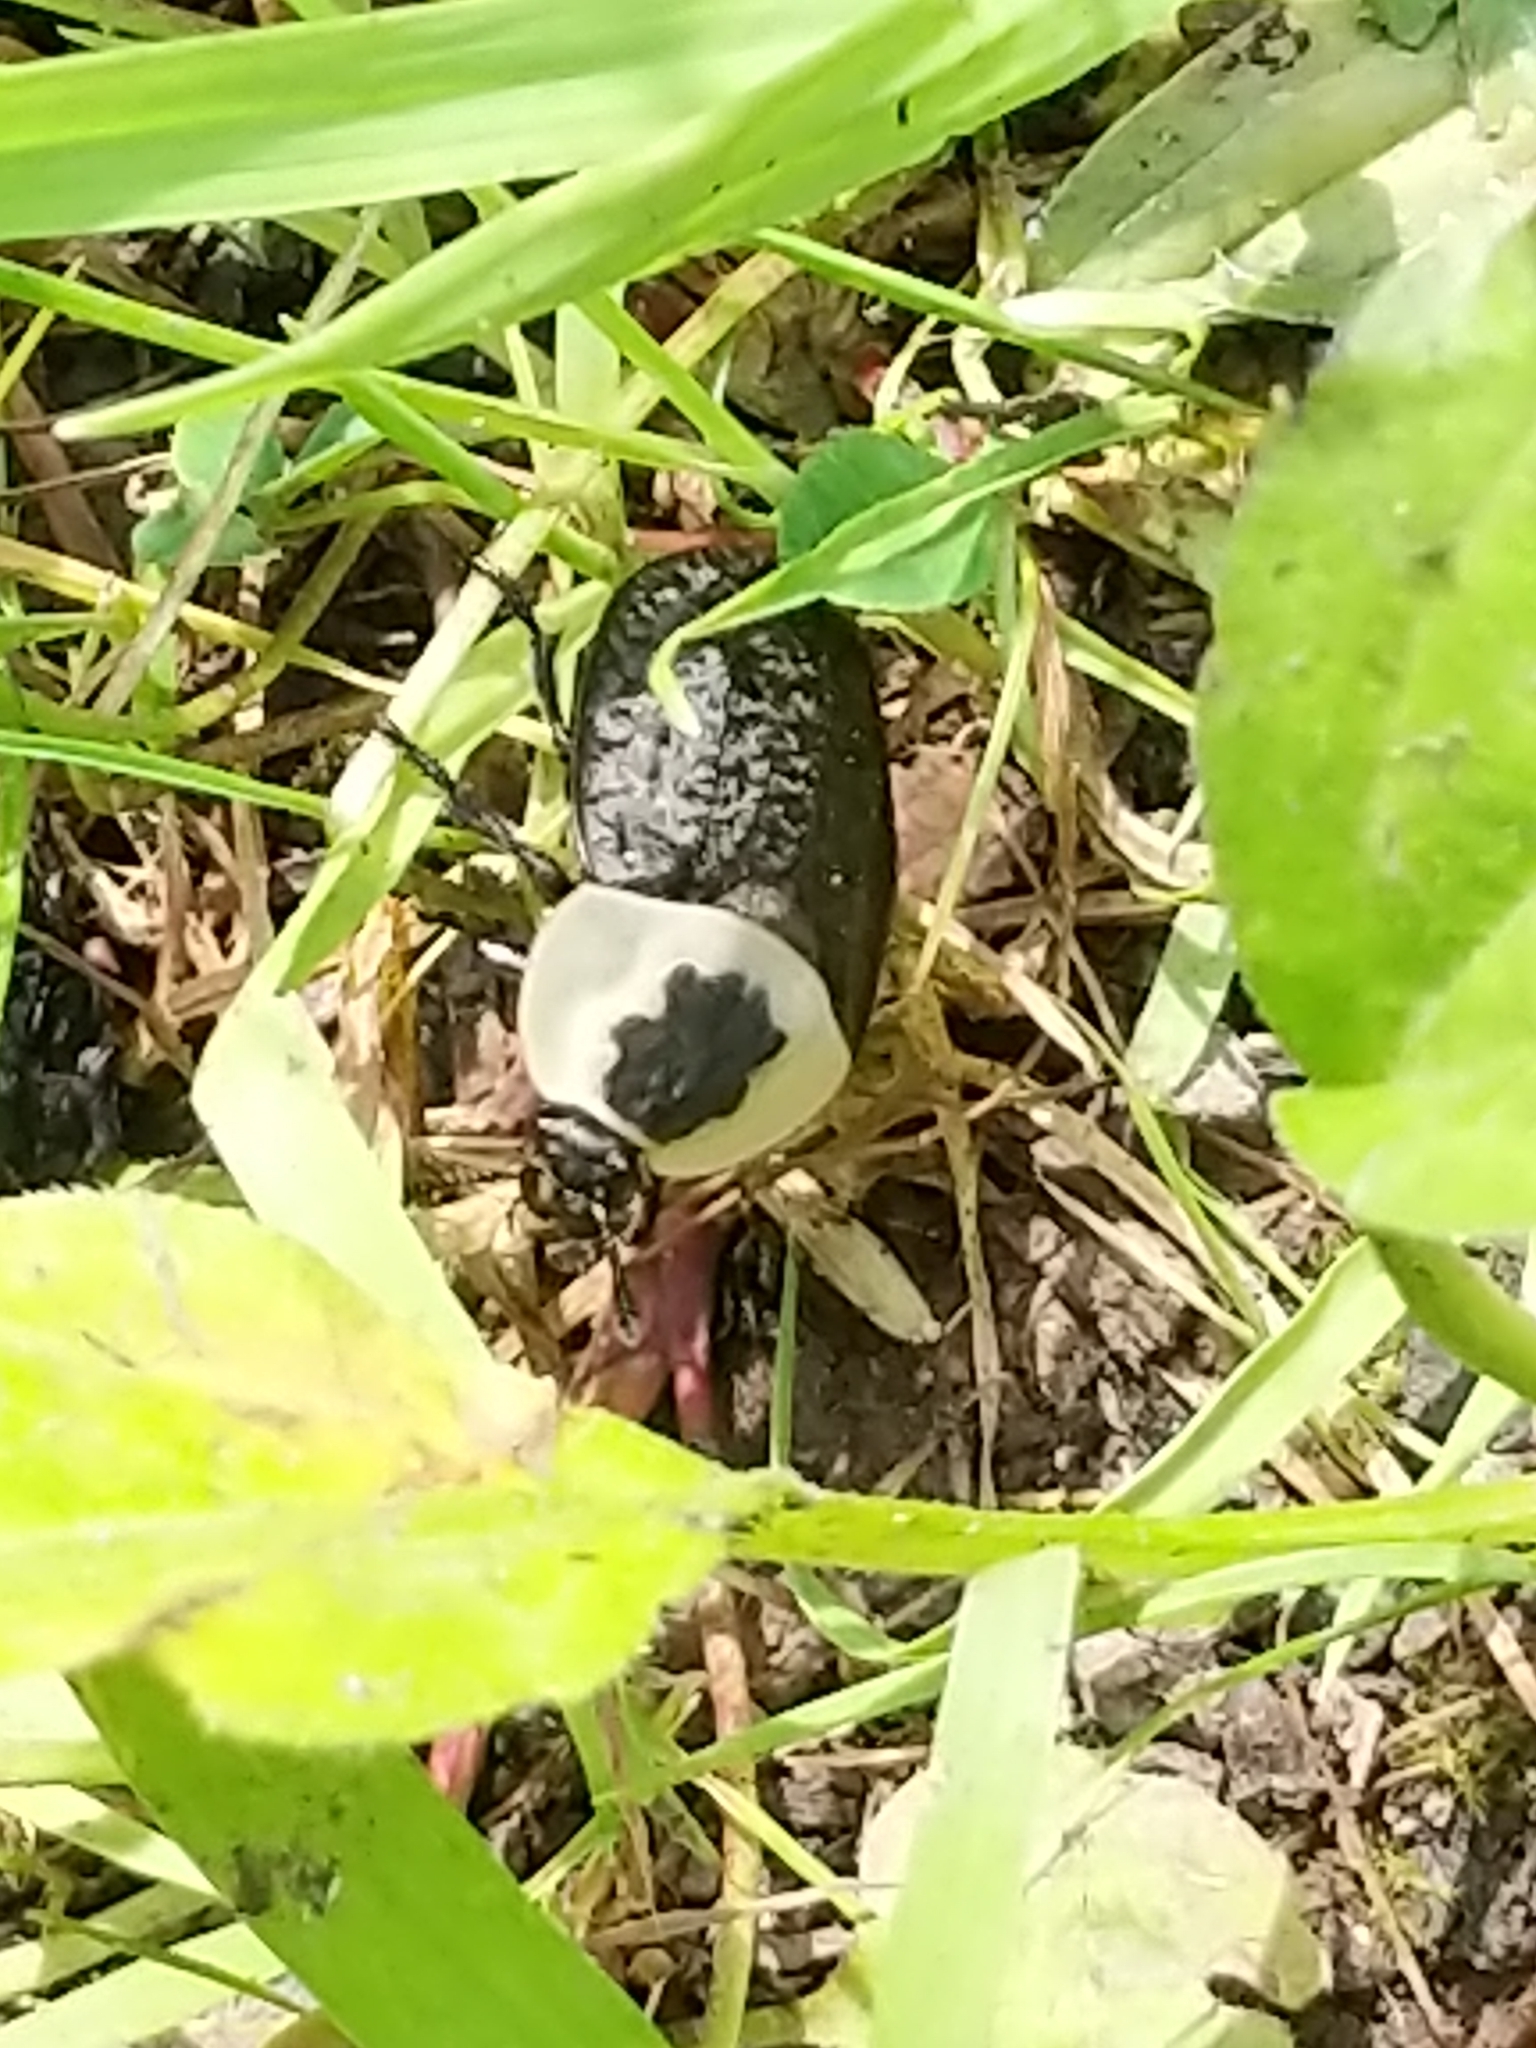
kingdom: Animalia
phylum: Arthropoda
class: Insecta
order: Coleoptera
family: Staphylinidae
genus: Necrophila
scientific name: Necrophila americana
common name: American carrion beetle
